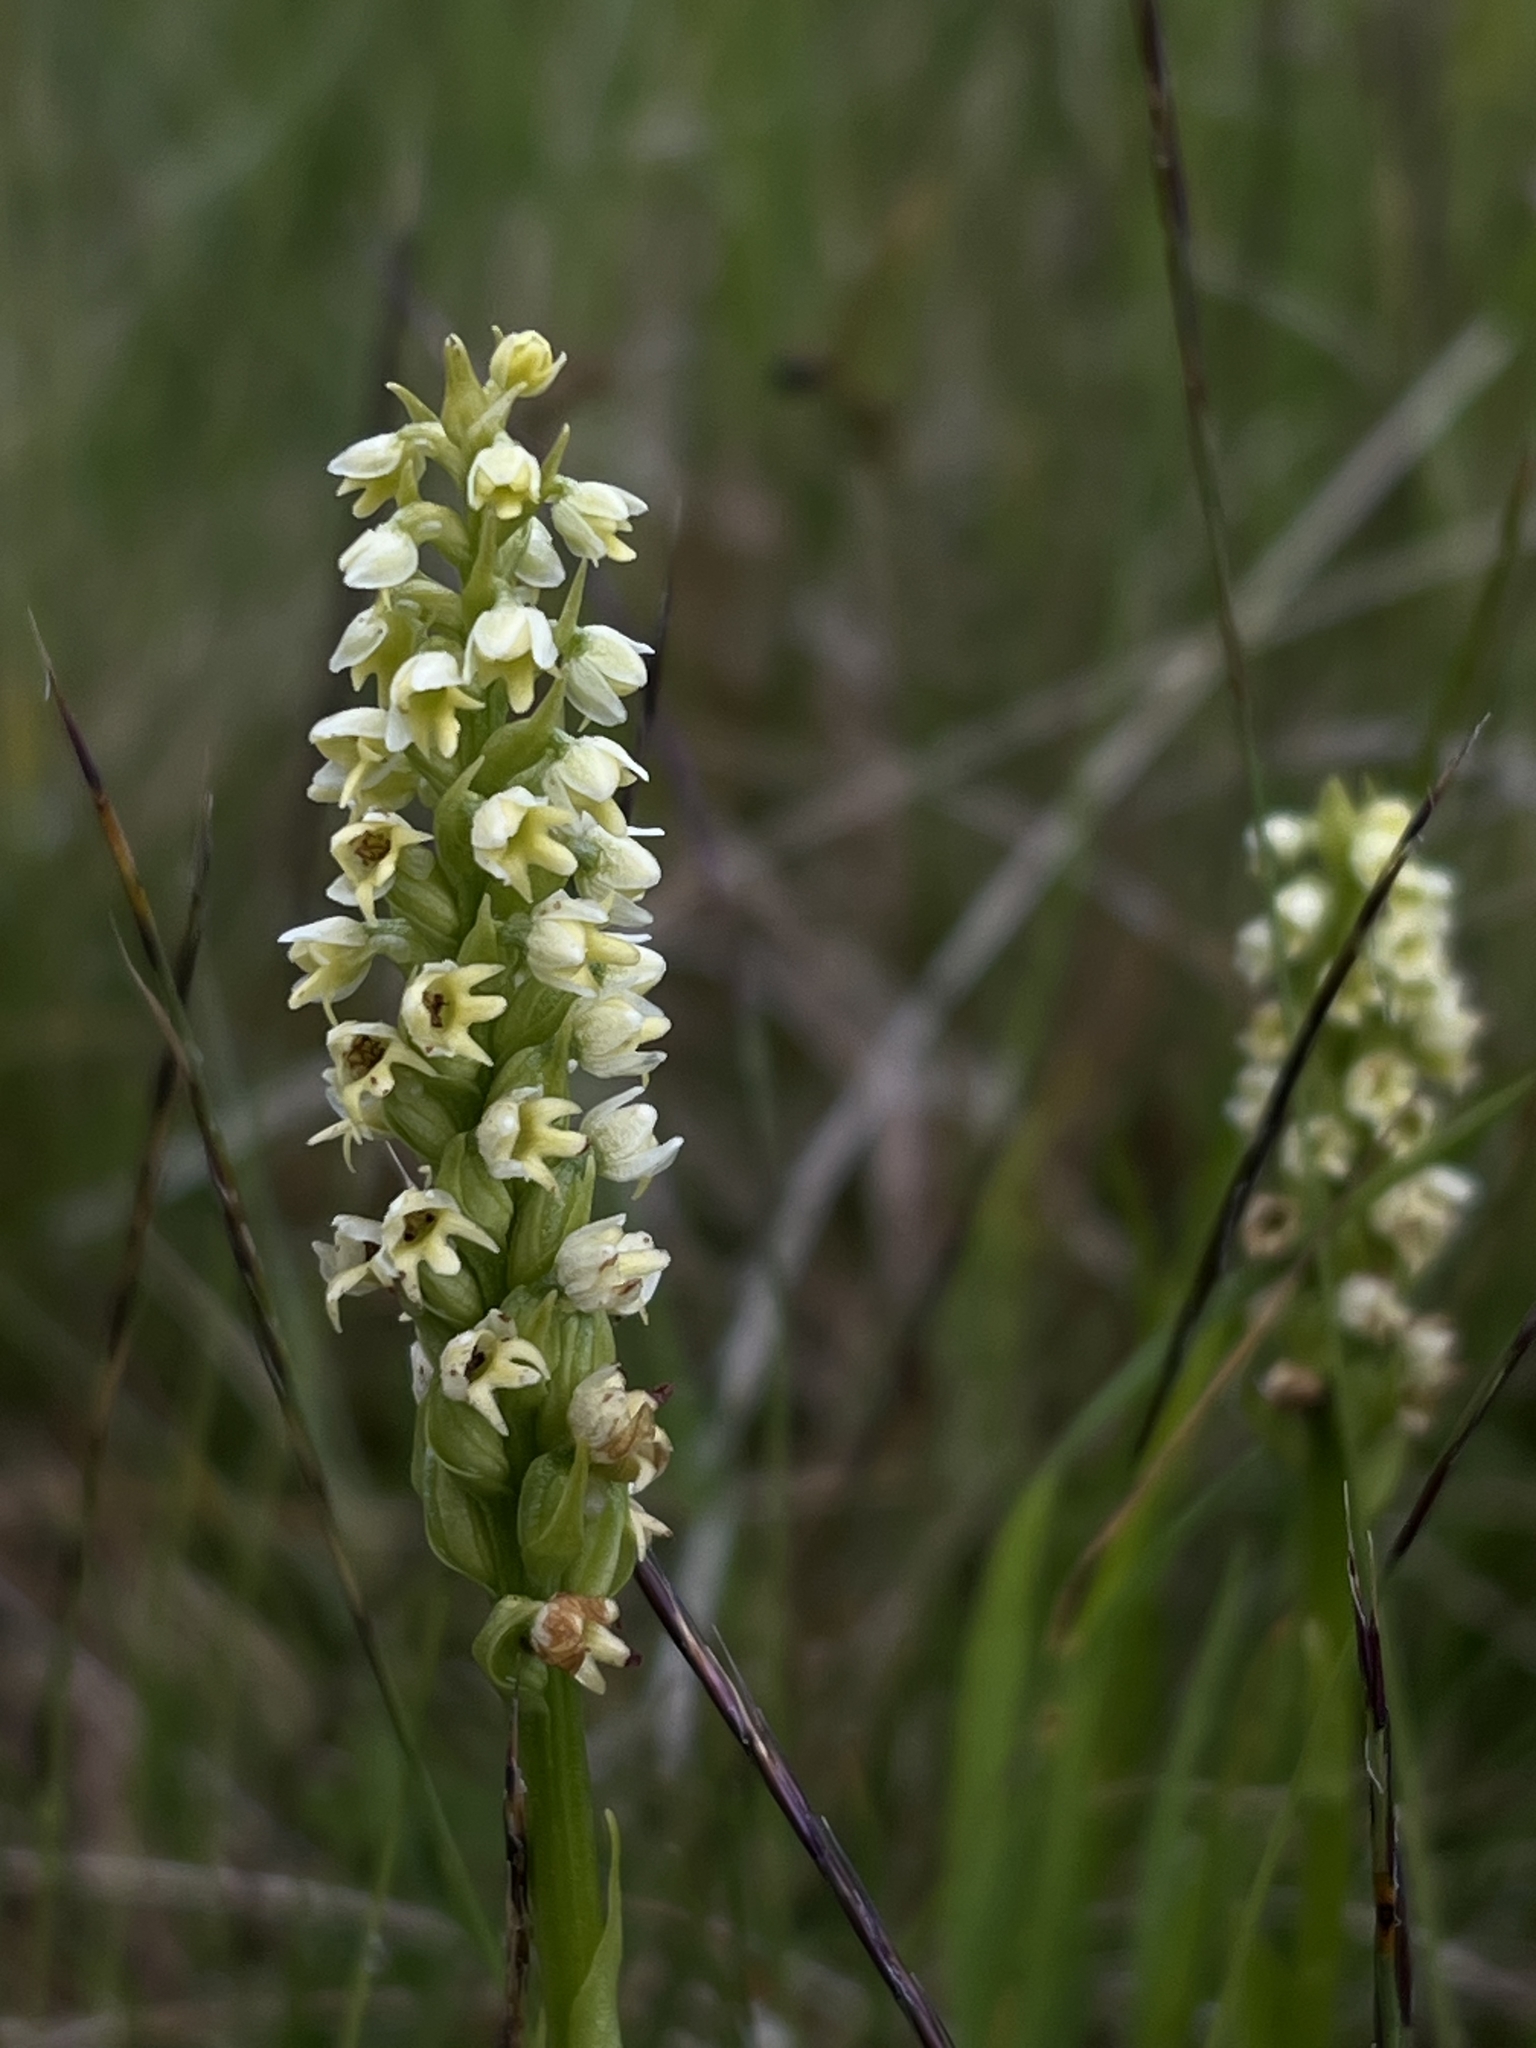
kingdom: Plantae
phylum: Tracheophyta
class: Liliopsida
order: Asparagales
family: Orchidaceae
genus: Pseudorchis
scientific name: Pseudorchis albida
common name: Small-white orchid
